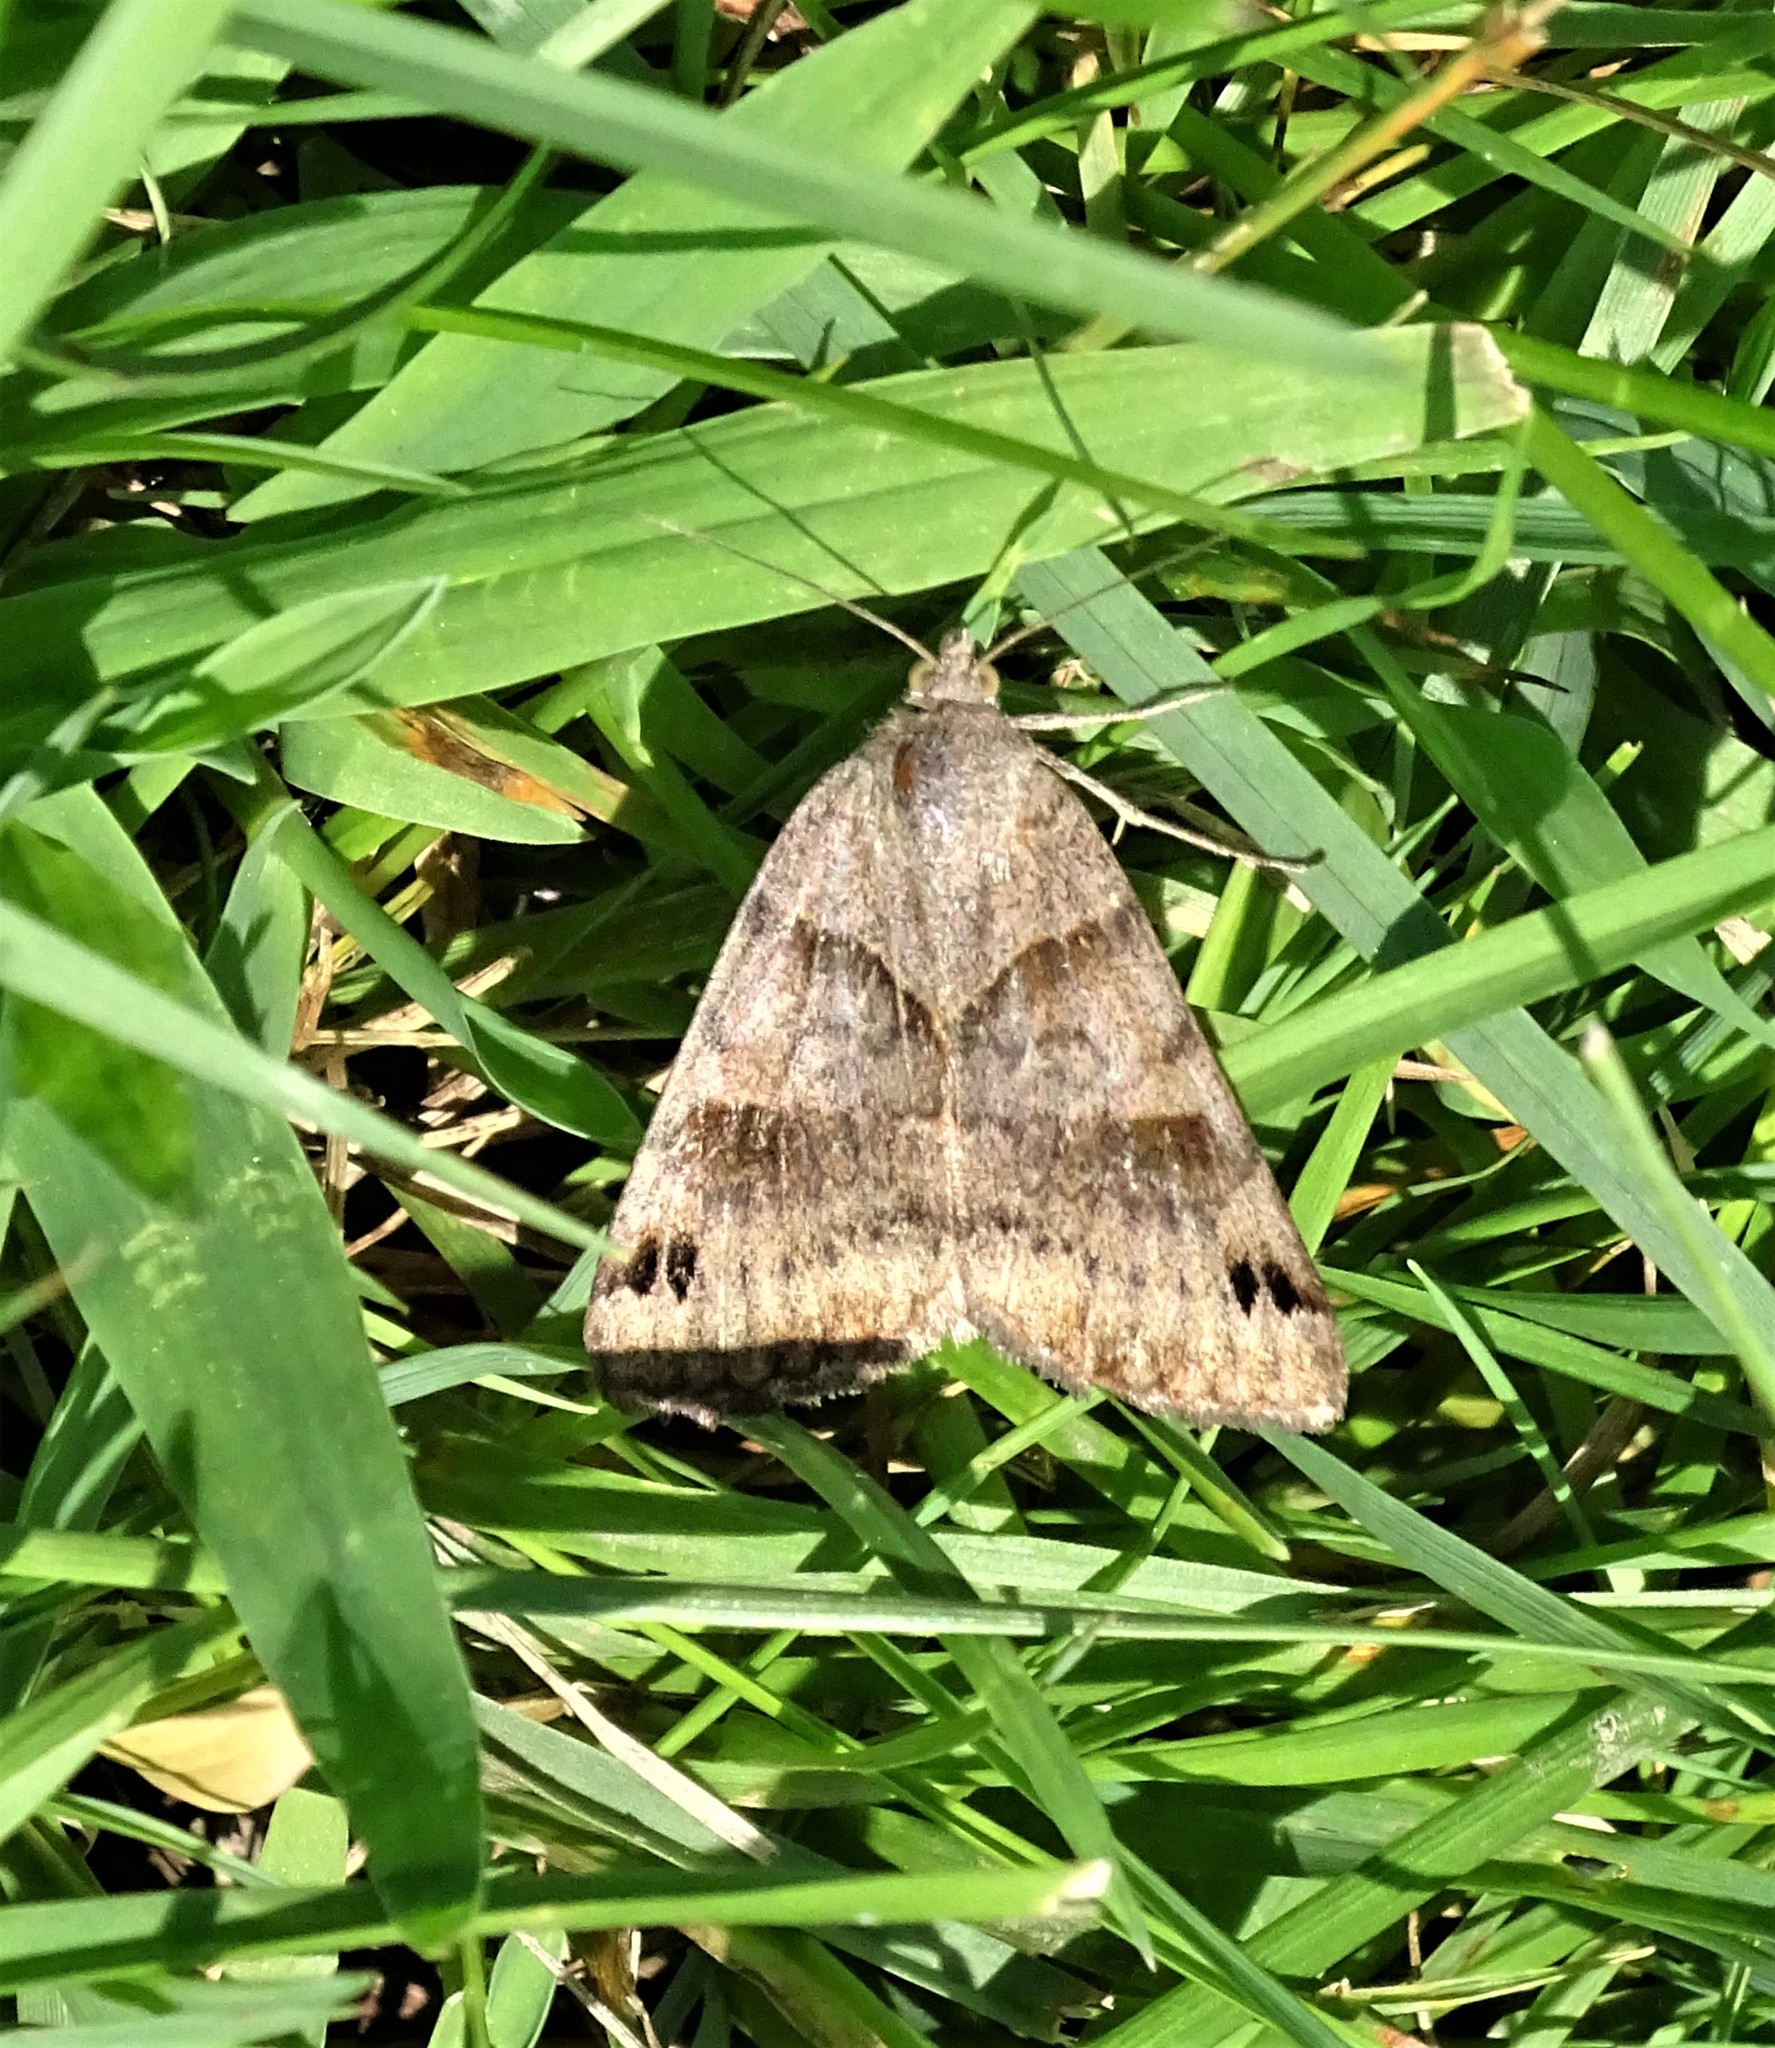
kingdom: Animalia
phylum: Arthropoda
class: Insecta
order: Lepidoptera
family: Erebidae
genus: Caenurgina
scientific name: Caenurgina crassiuscula
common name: Double-barred
